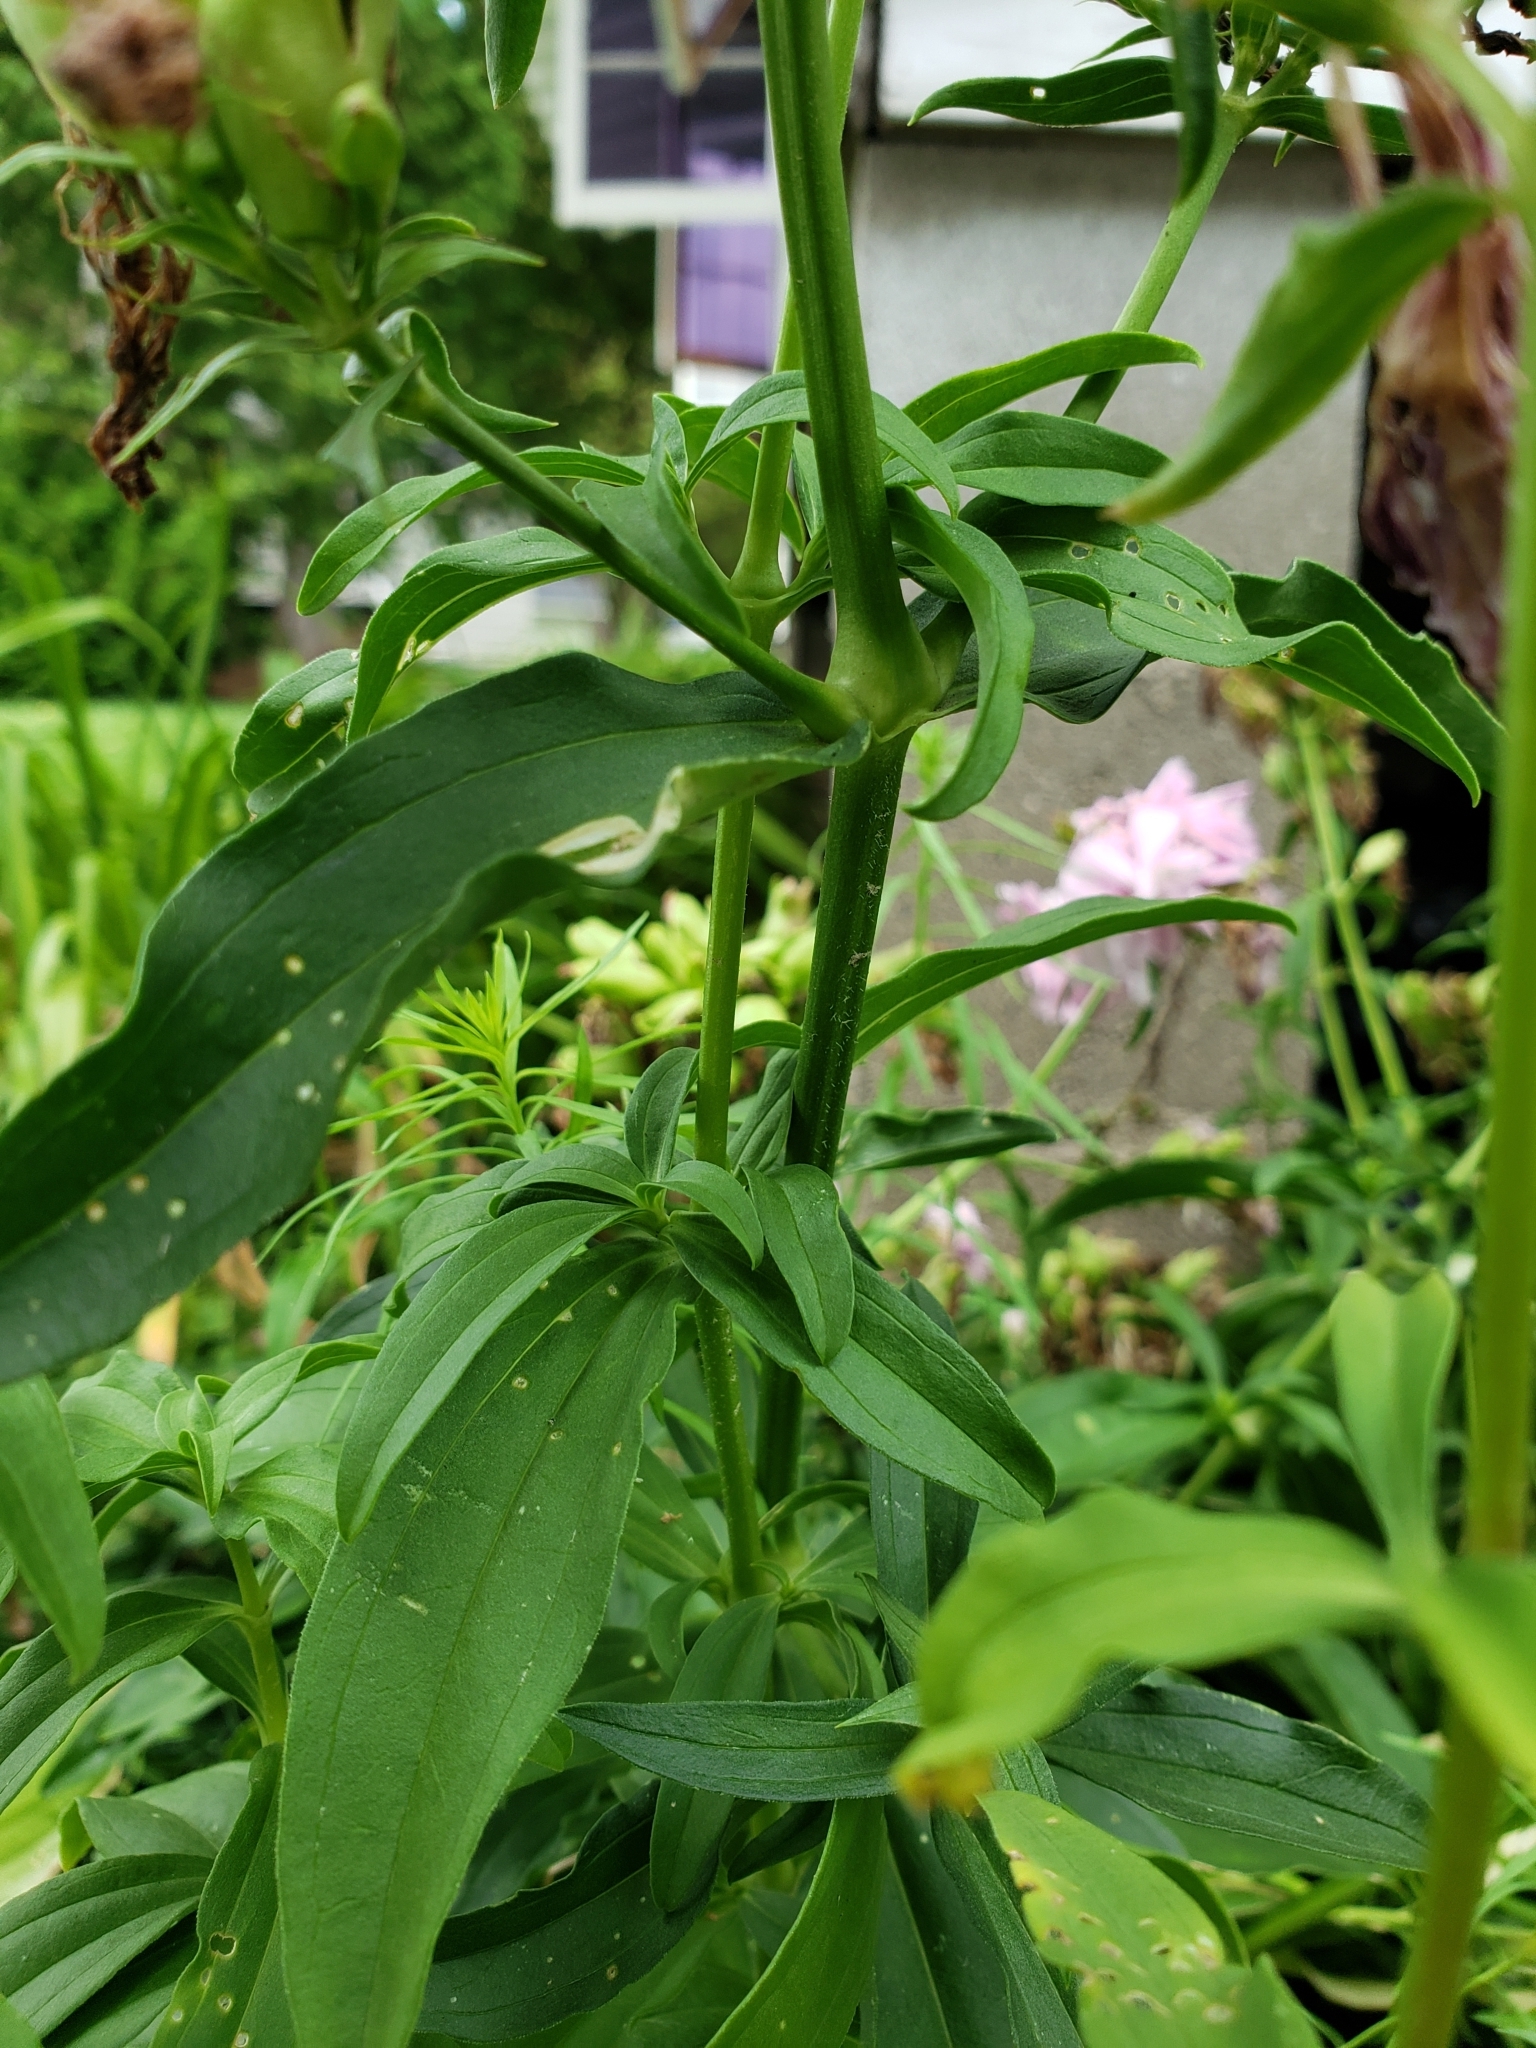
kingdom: Plantae
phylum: Tracheophyta
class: Magnoliopsida
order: Caryophyllales
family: Caryophyllaceae
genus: Saponaria
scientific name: Saponaria officinalis
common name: Soapwort
